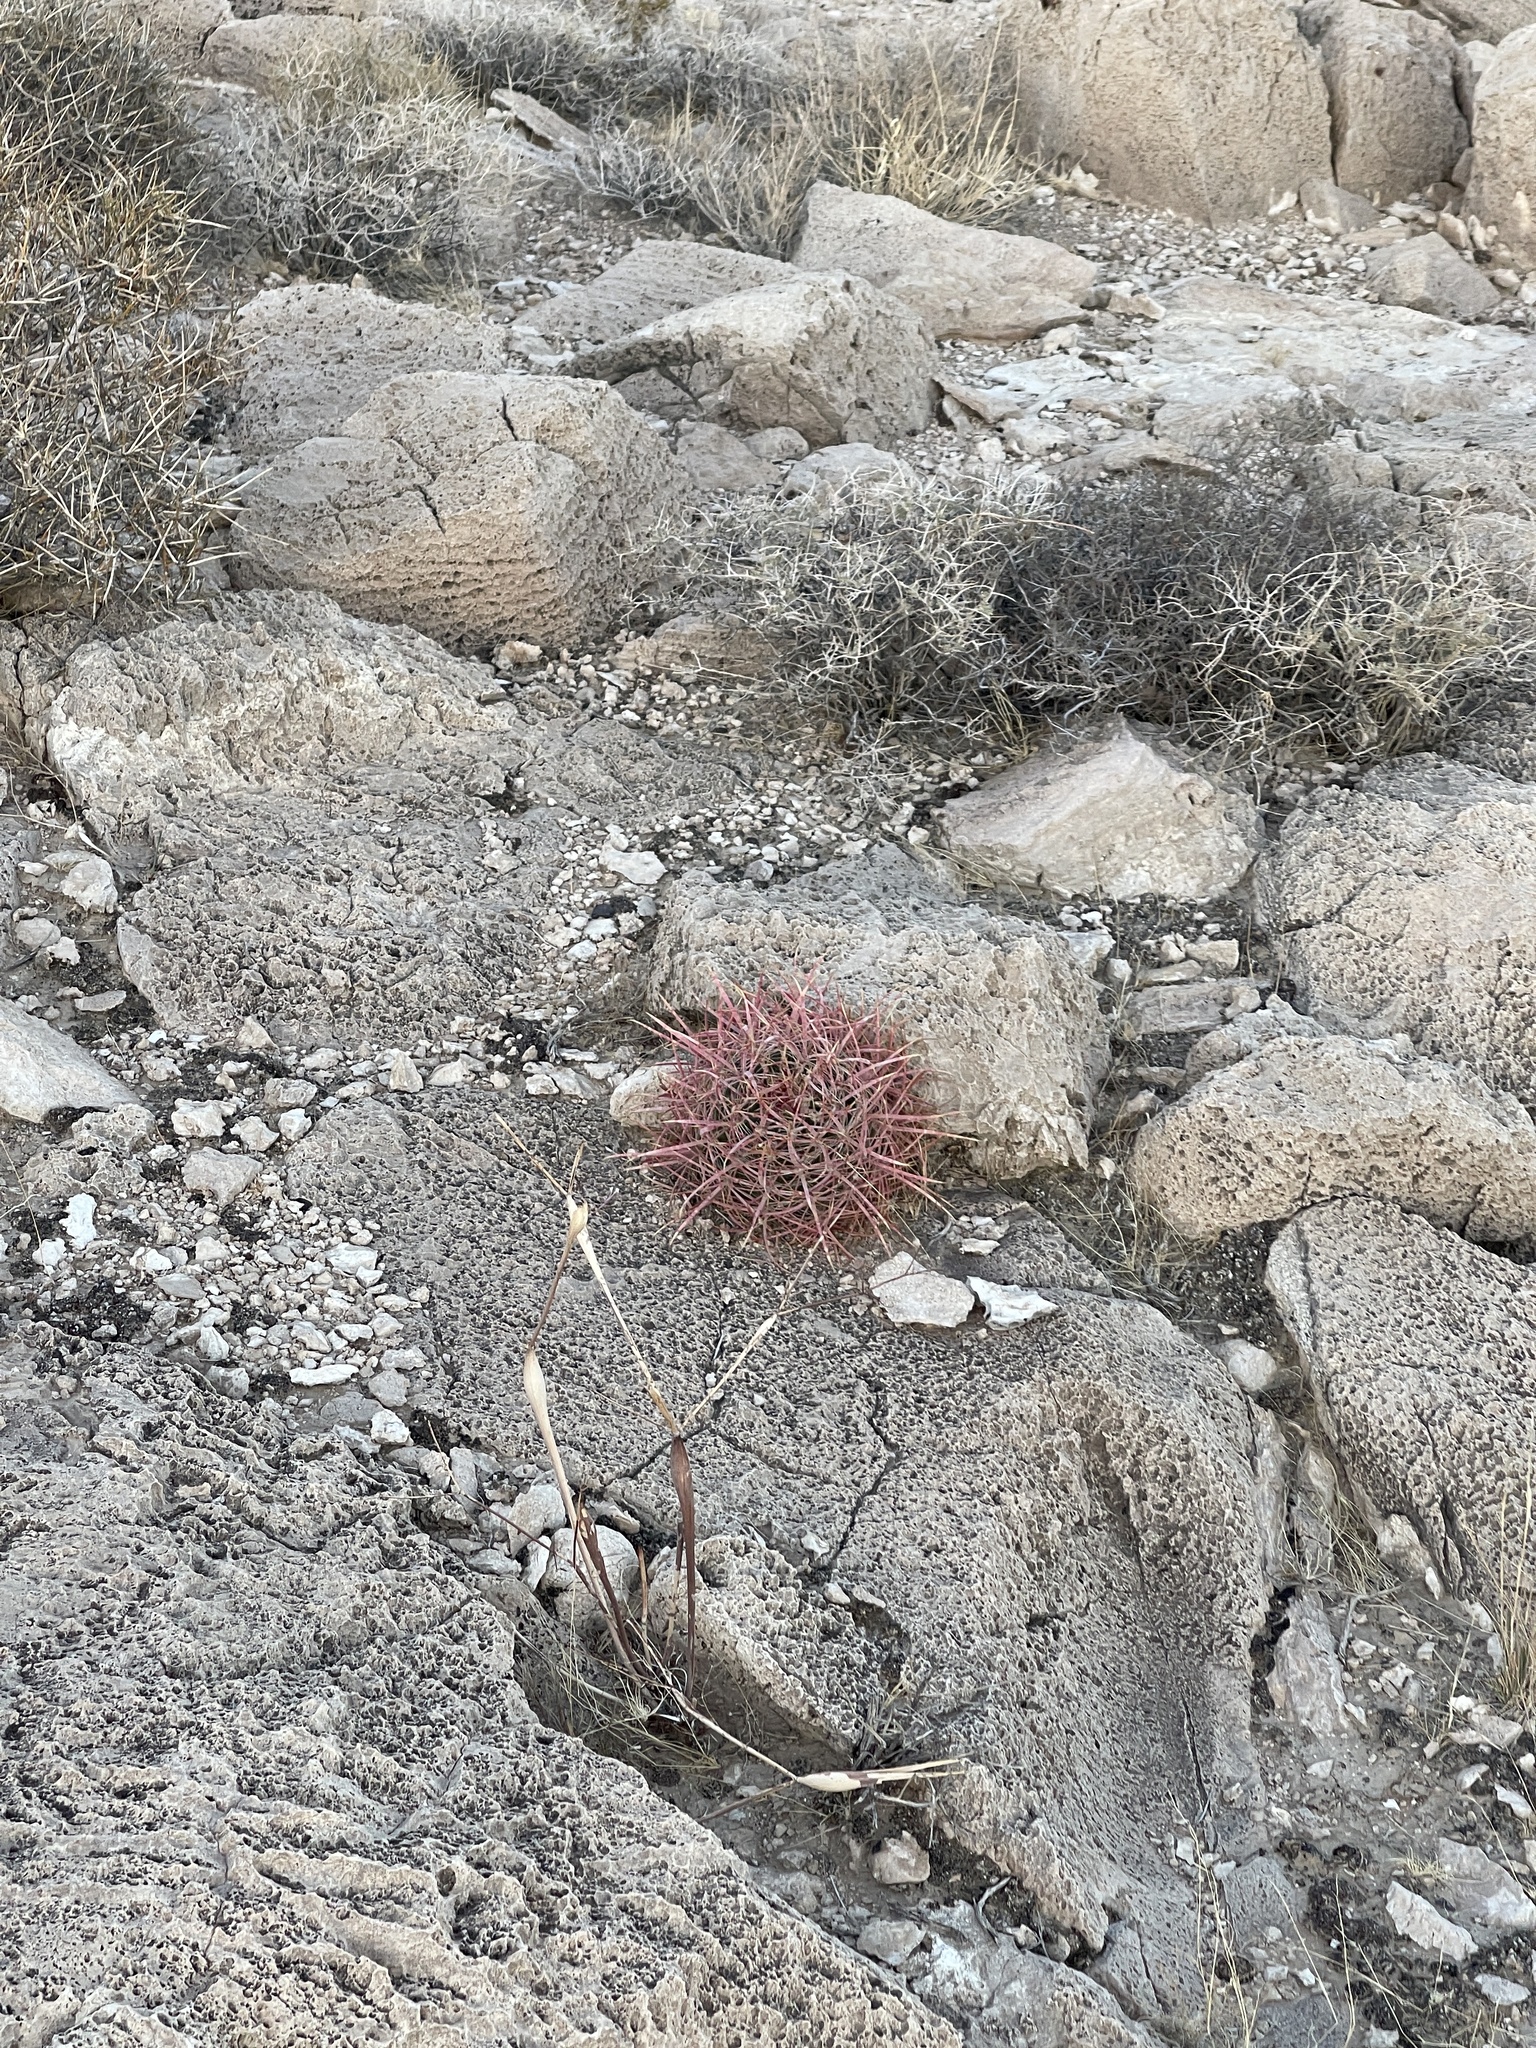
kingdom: Plantae
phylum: Tracheophyta
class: Magnoliopsida
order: Caryophyllales
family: Cactaceae
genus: Ferocactus
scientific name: Ferocactus cylindraceus
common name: California barrel cactus
